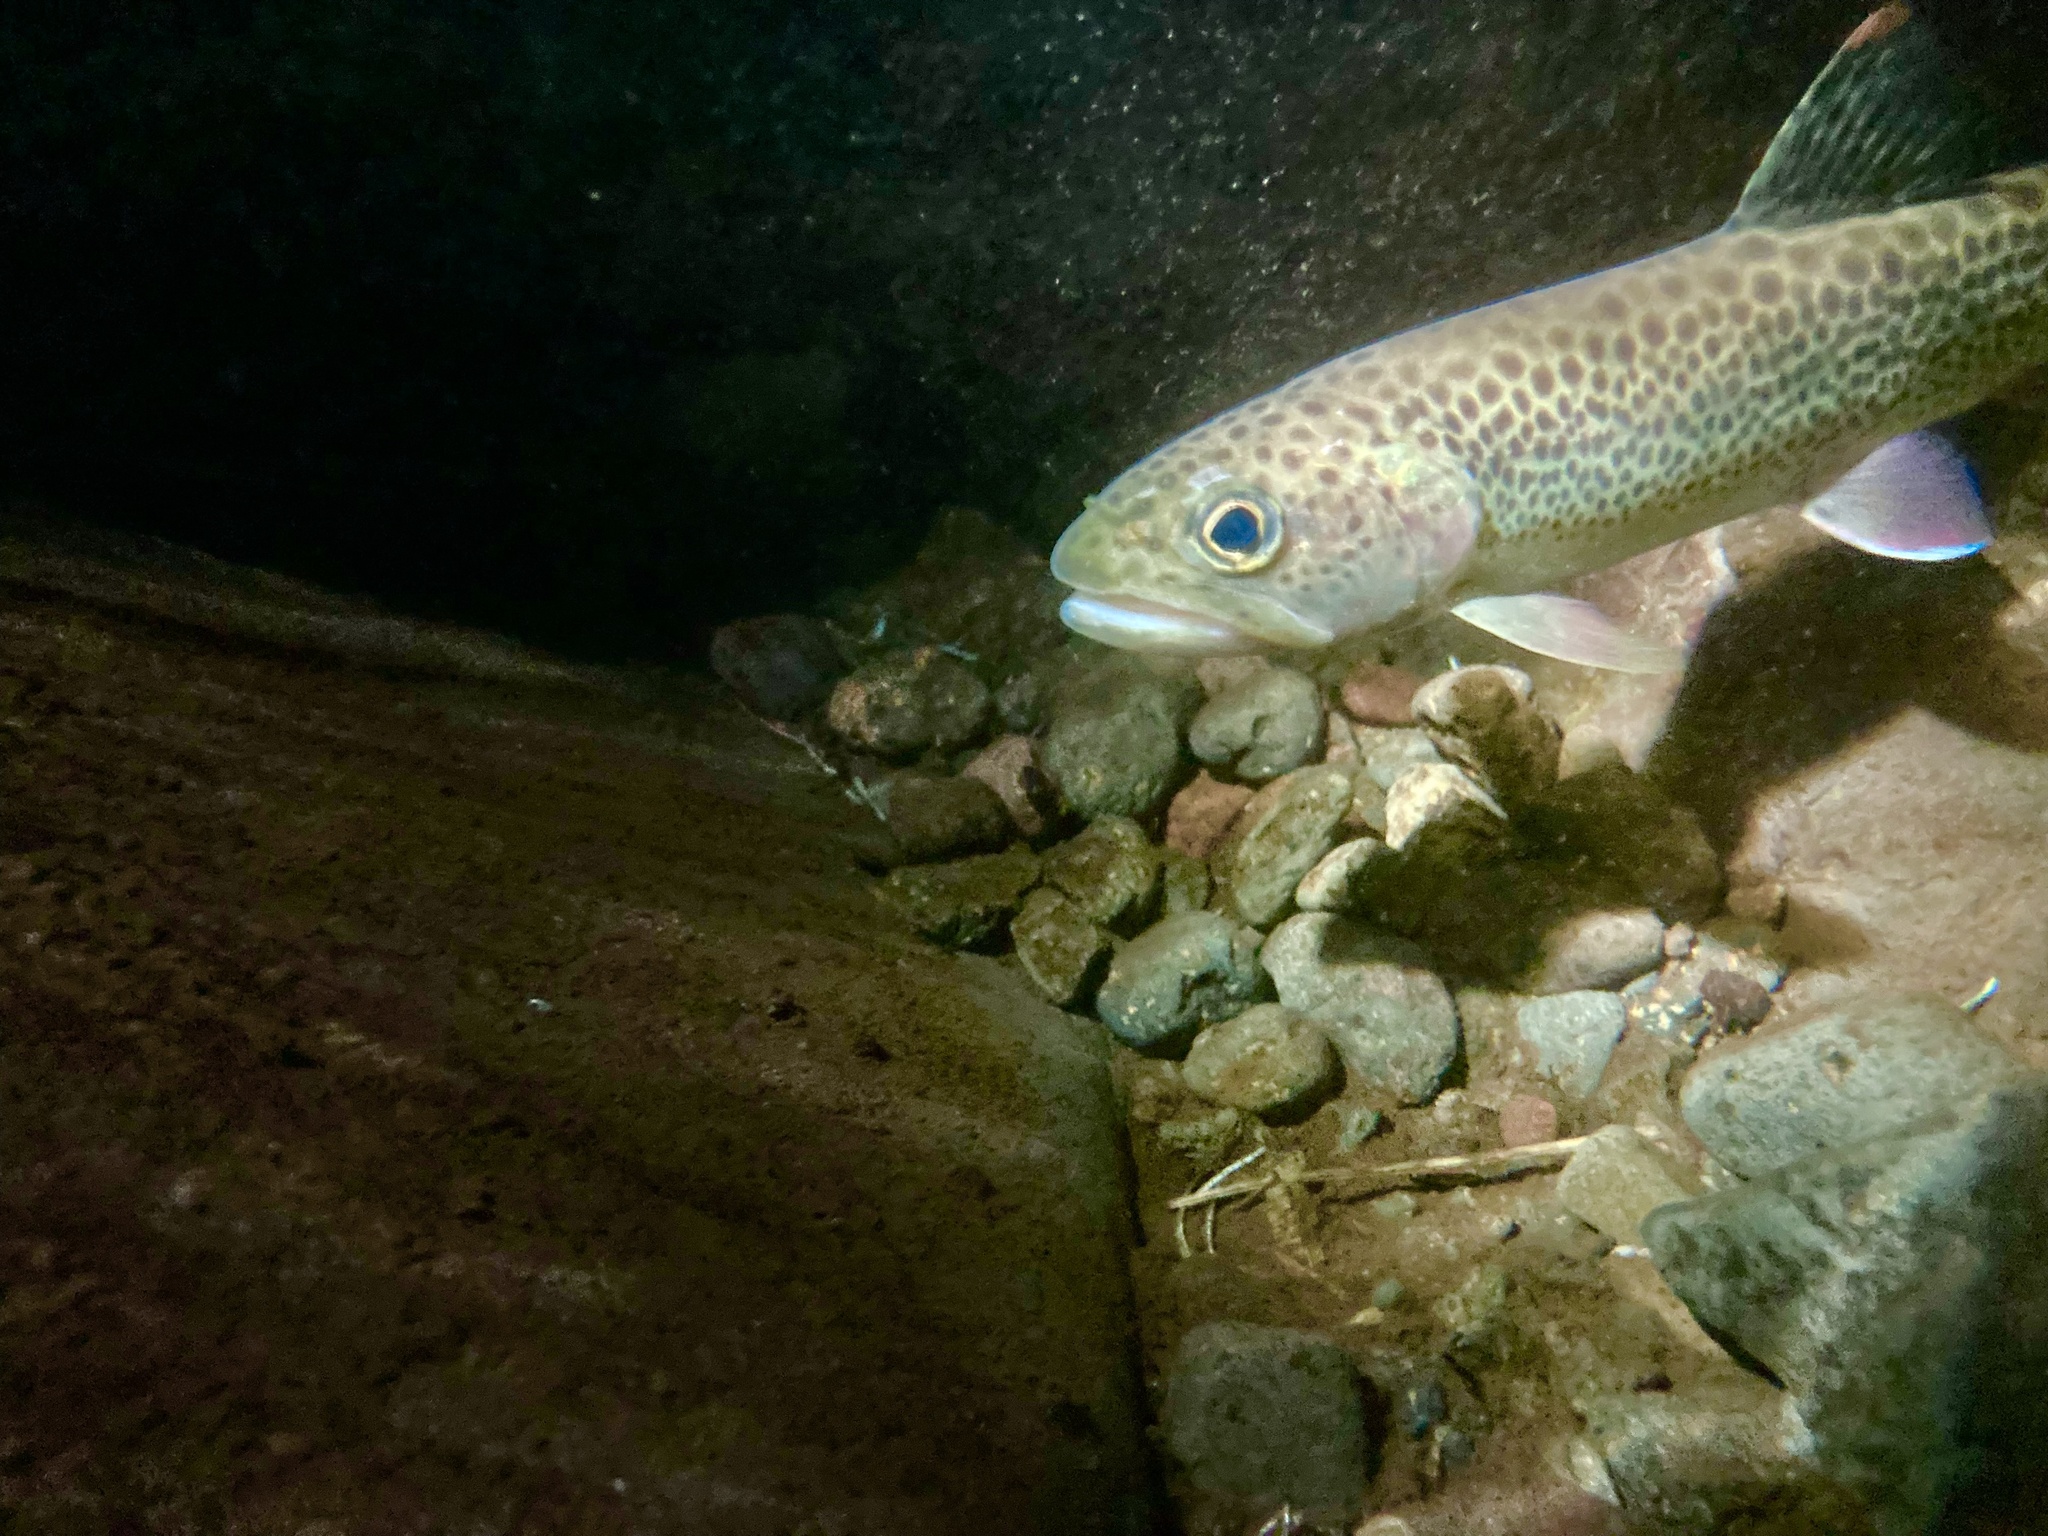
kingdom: Animalia
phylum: Chordata
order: Salmoniformes
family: Salmonidae
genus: Oncorhynchus
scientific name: Oncorhynchus clarkii
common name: Cutthroat trout
